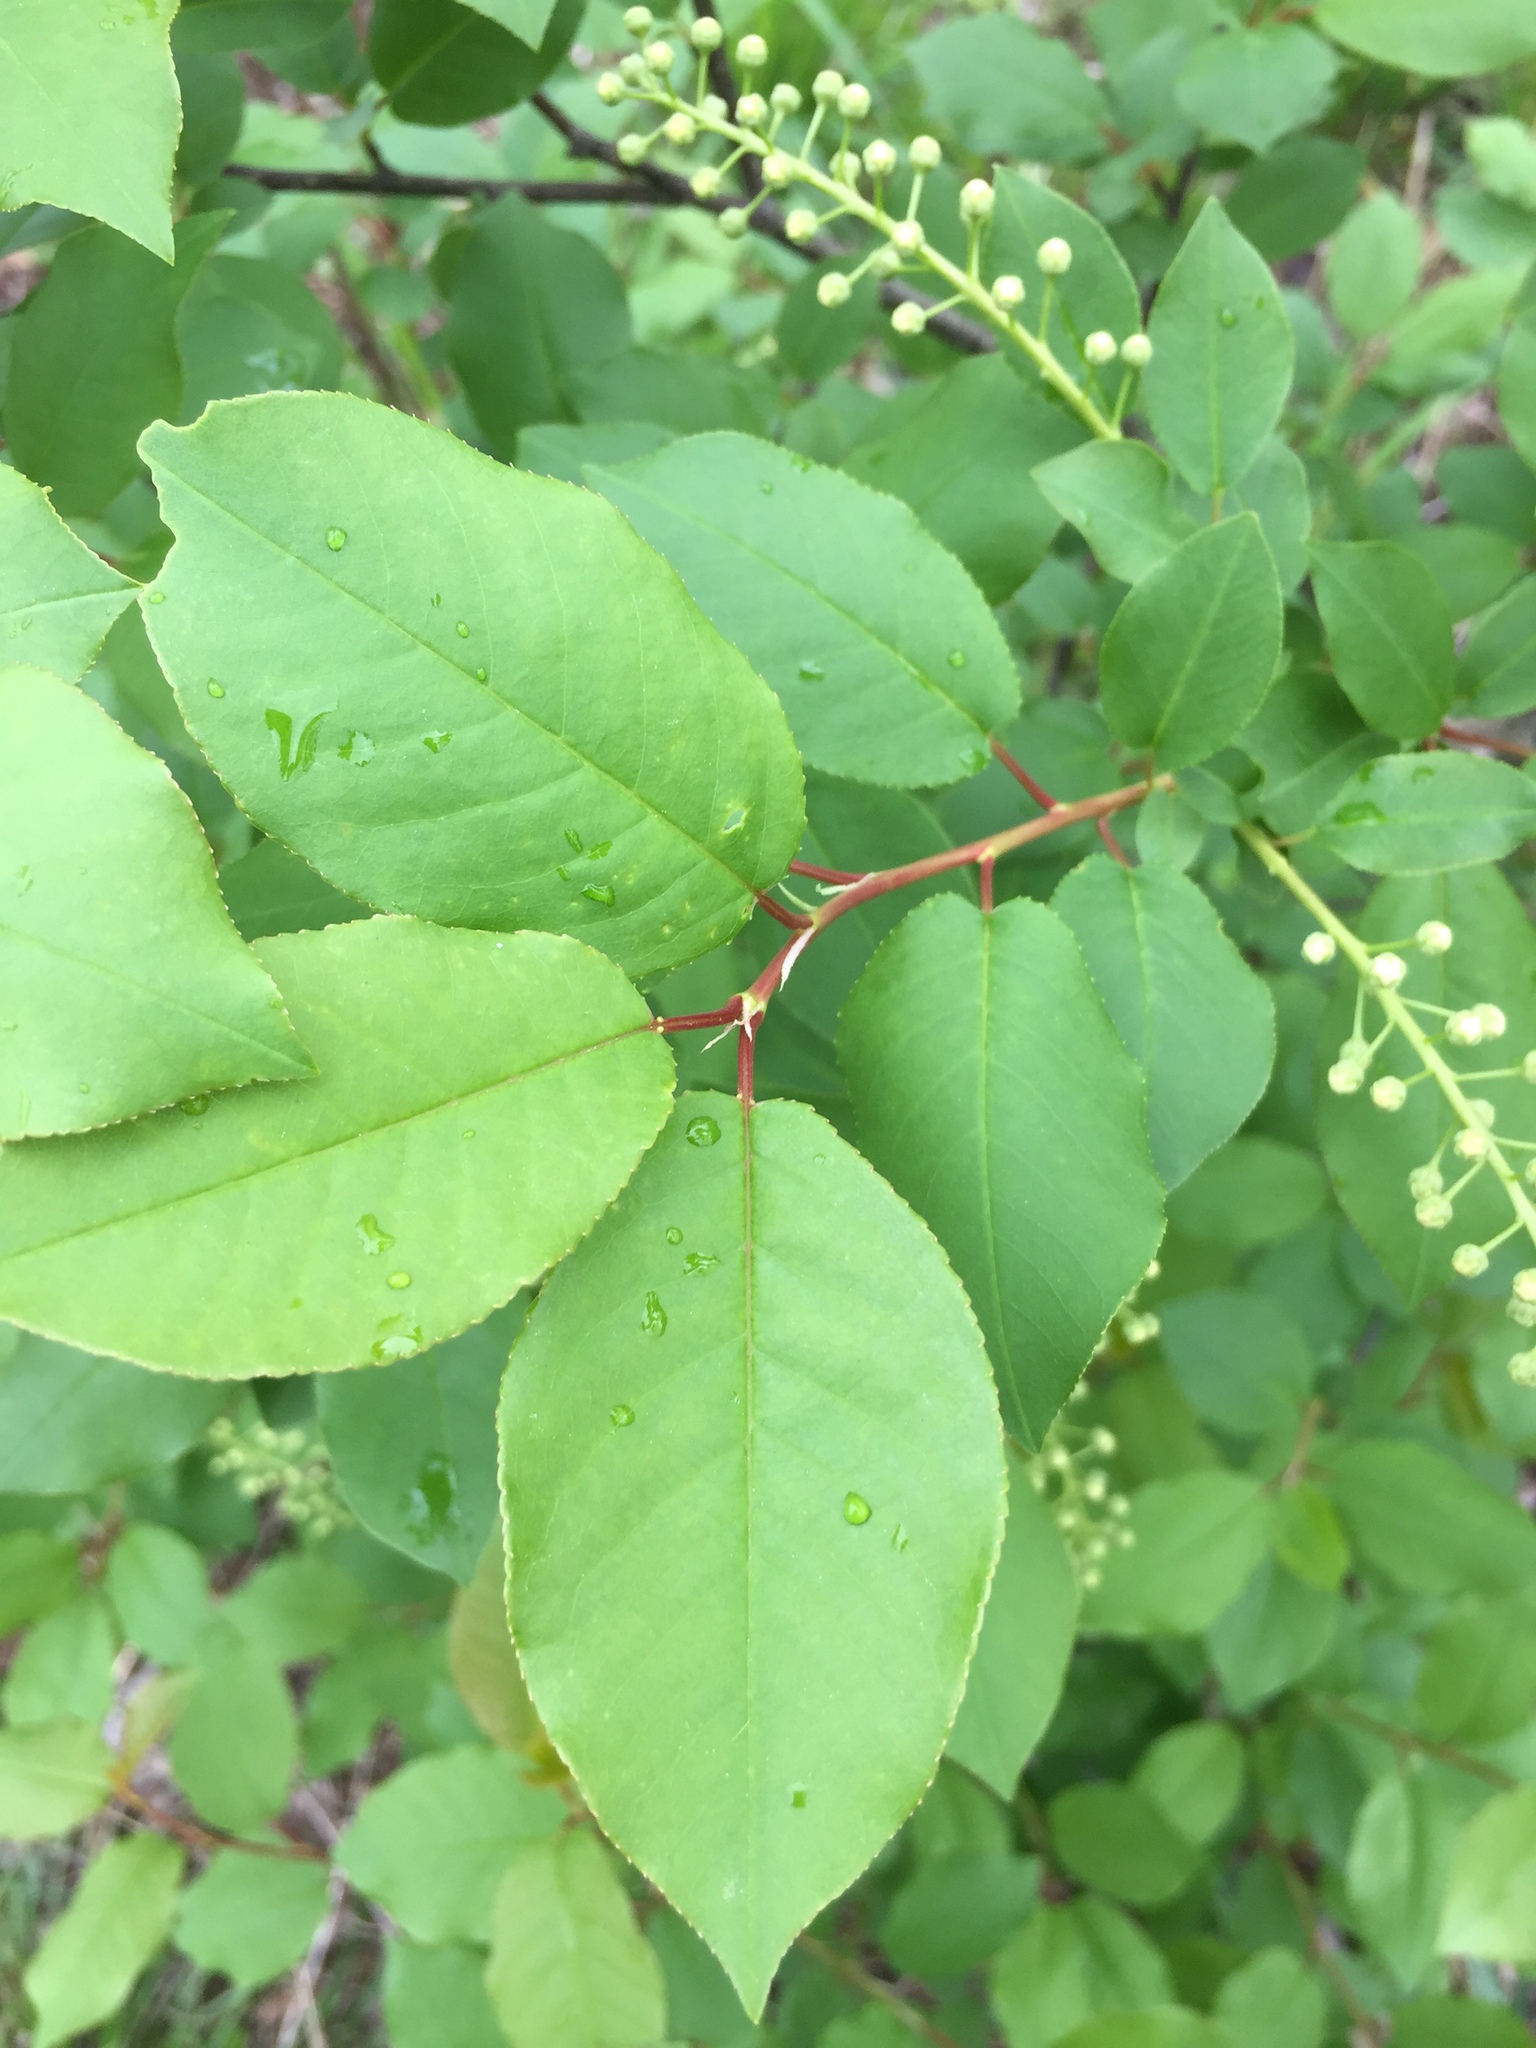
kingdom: Plantae
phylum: Tracheophyta
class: Magnoliopsida
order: Rosales
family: Rosaceae
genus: Prunus
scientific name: Prunus virginiana
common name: Chokecherry
